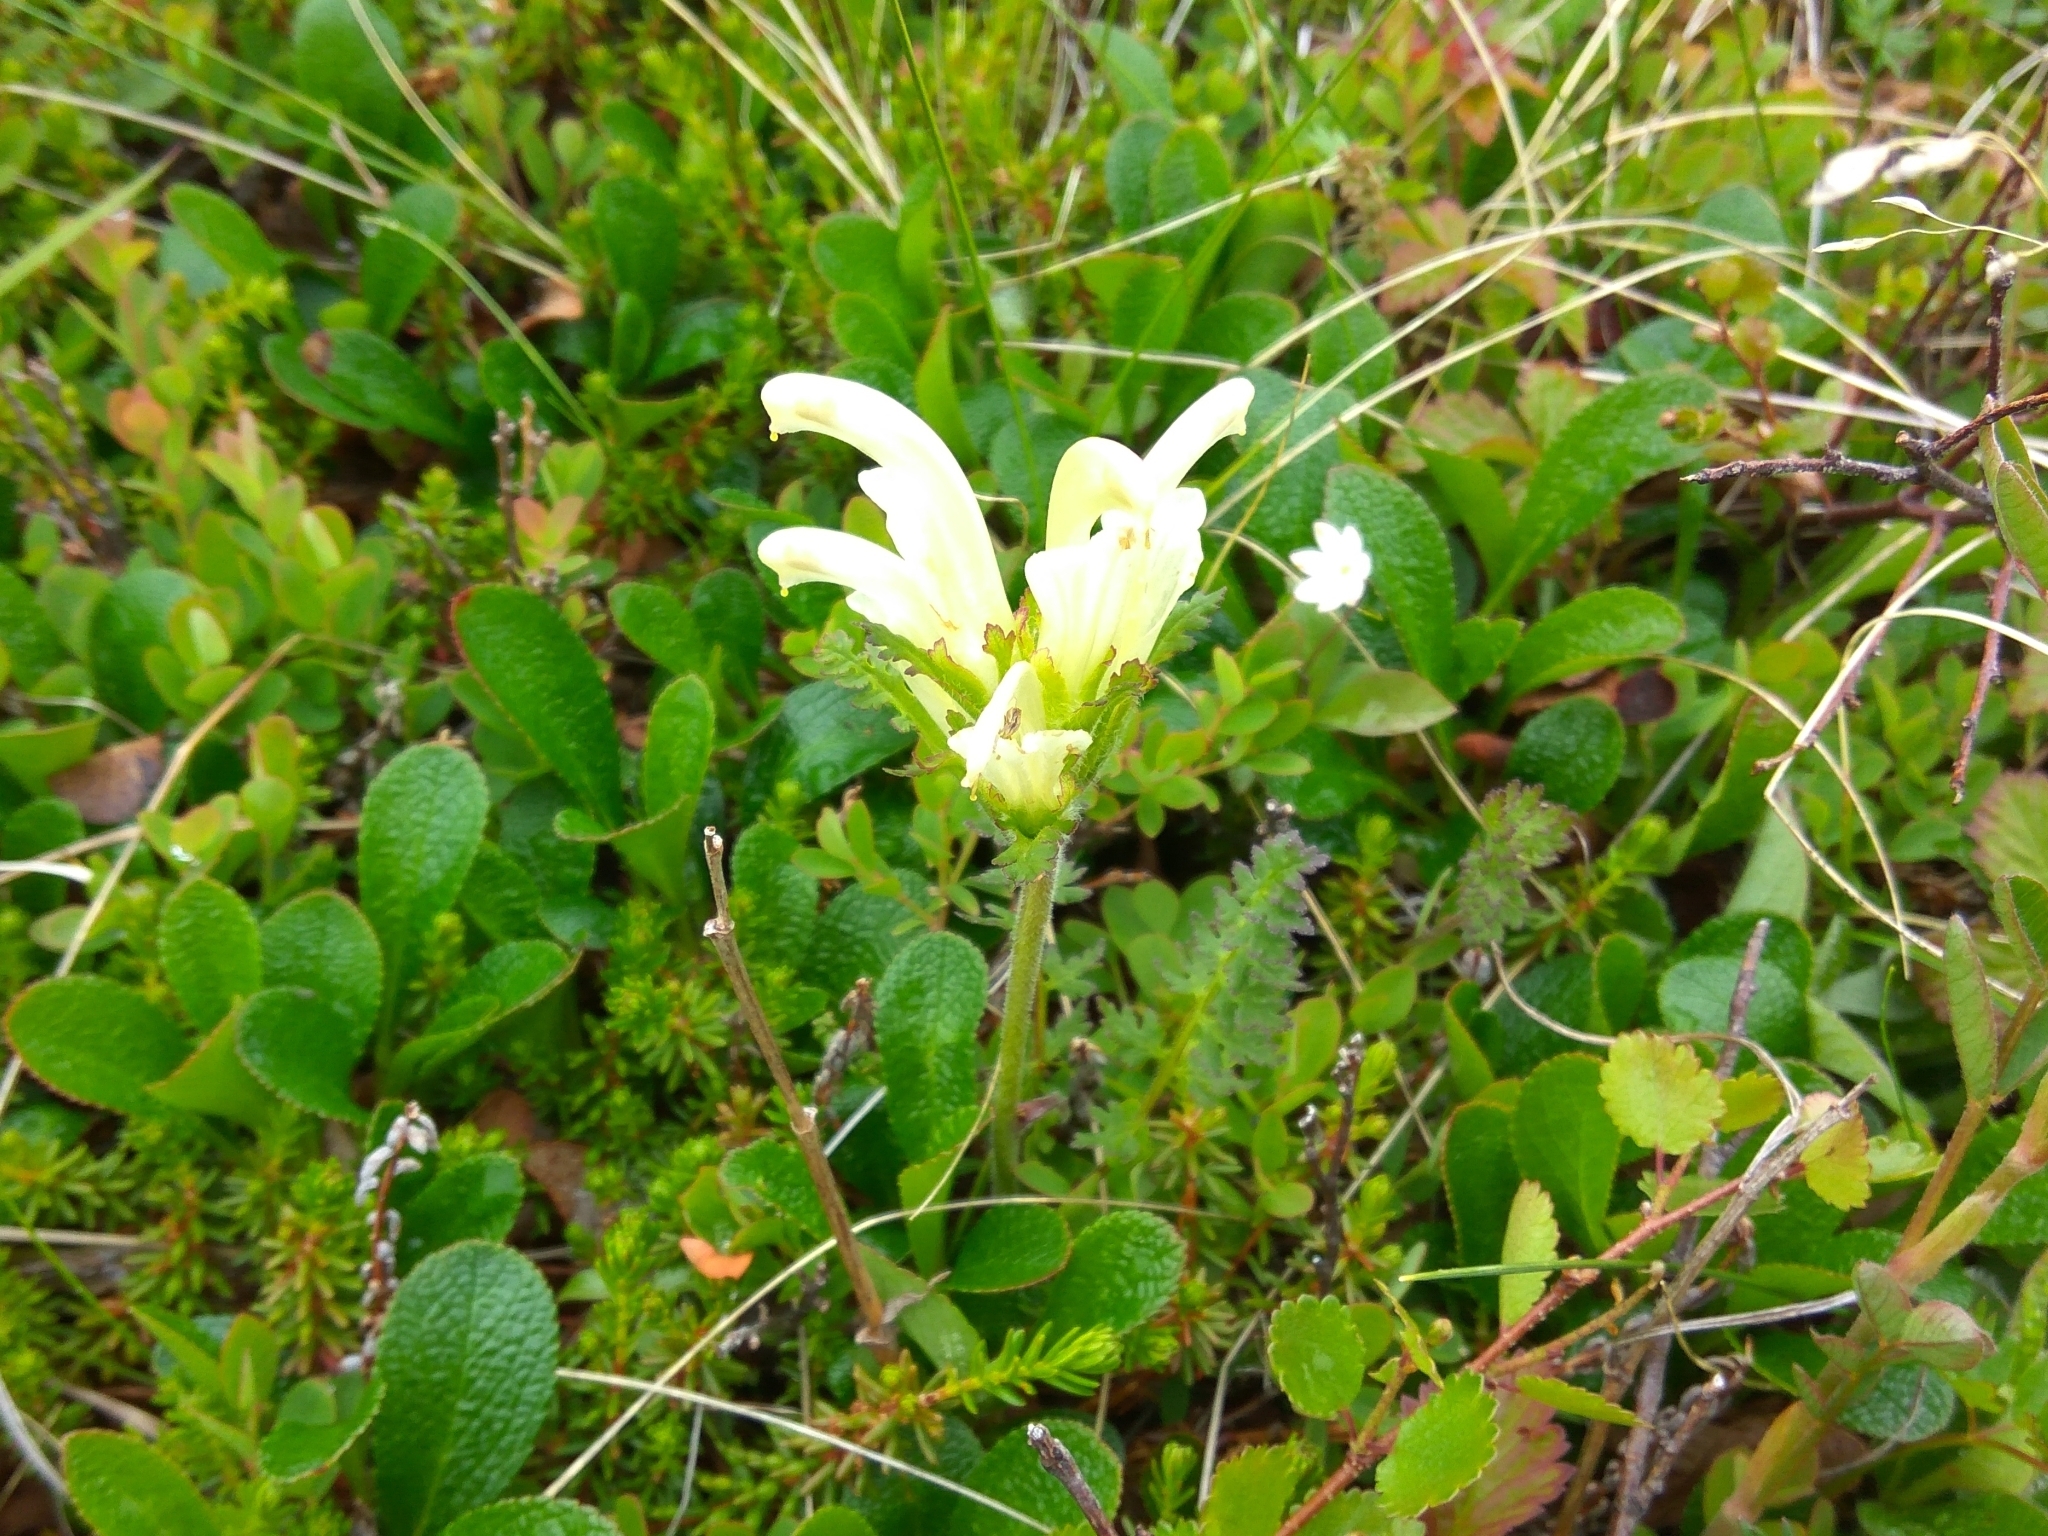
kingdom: Plantae
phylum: Tracheophyta
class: Magnoliopsida
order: Lamiales
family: Orobanchaceae
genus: Pedicularis
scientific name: Pedicularis capitata
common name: Capitate lousewort
